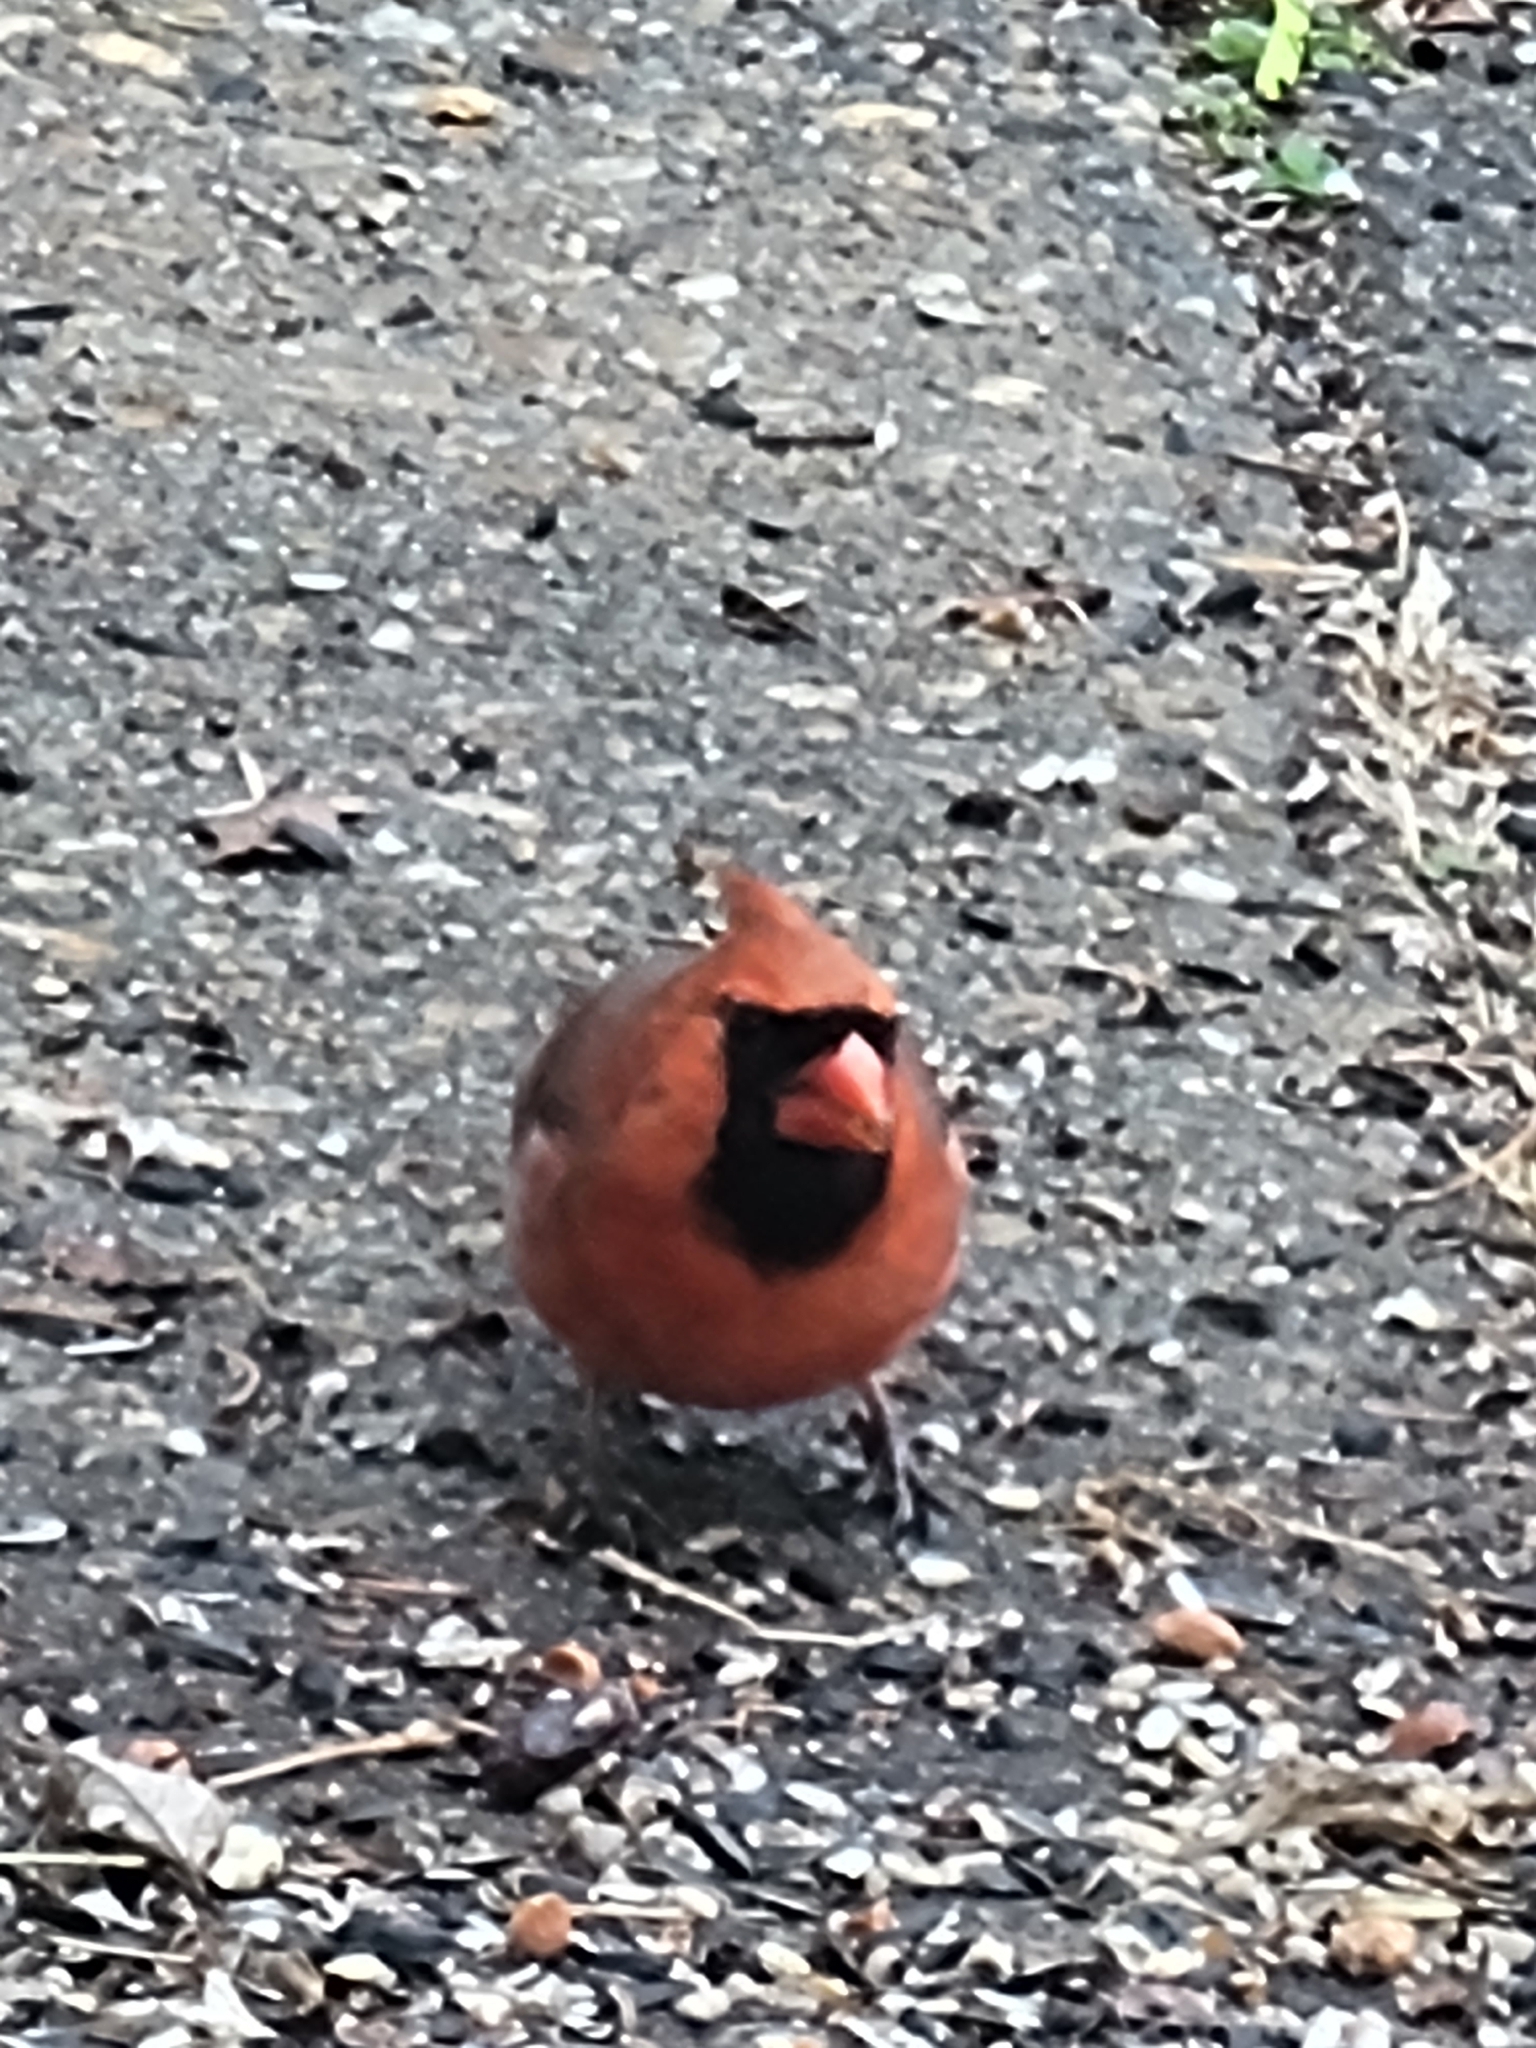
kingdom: Animalia
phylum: Chordata
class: Aves
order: Passeriformes
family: Cardinalidae
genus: Cardinalis
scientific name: Cardinalis cardinalis
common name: Northern cardinal
